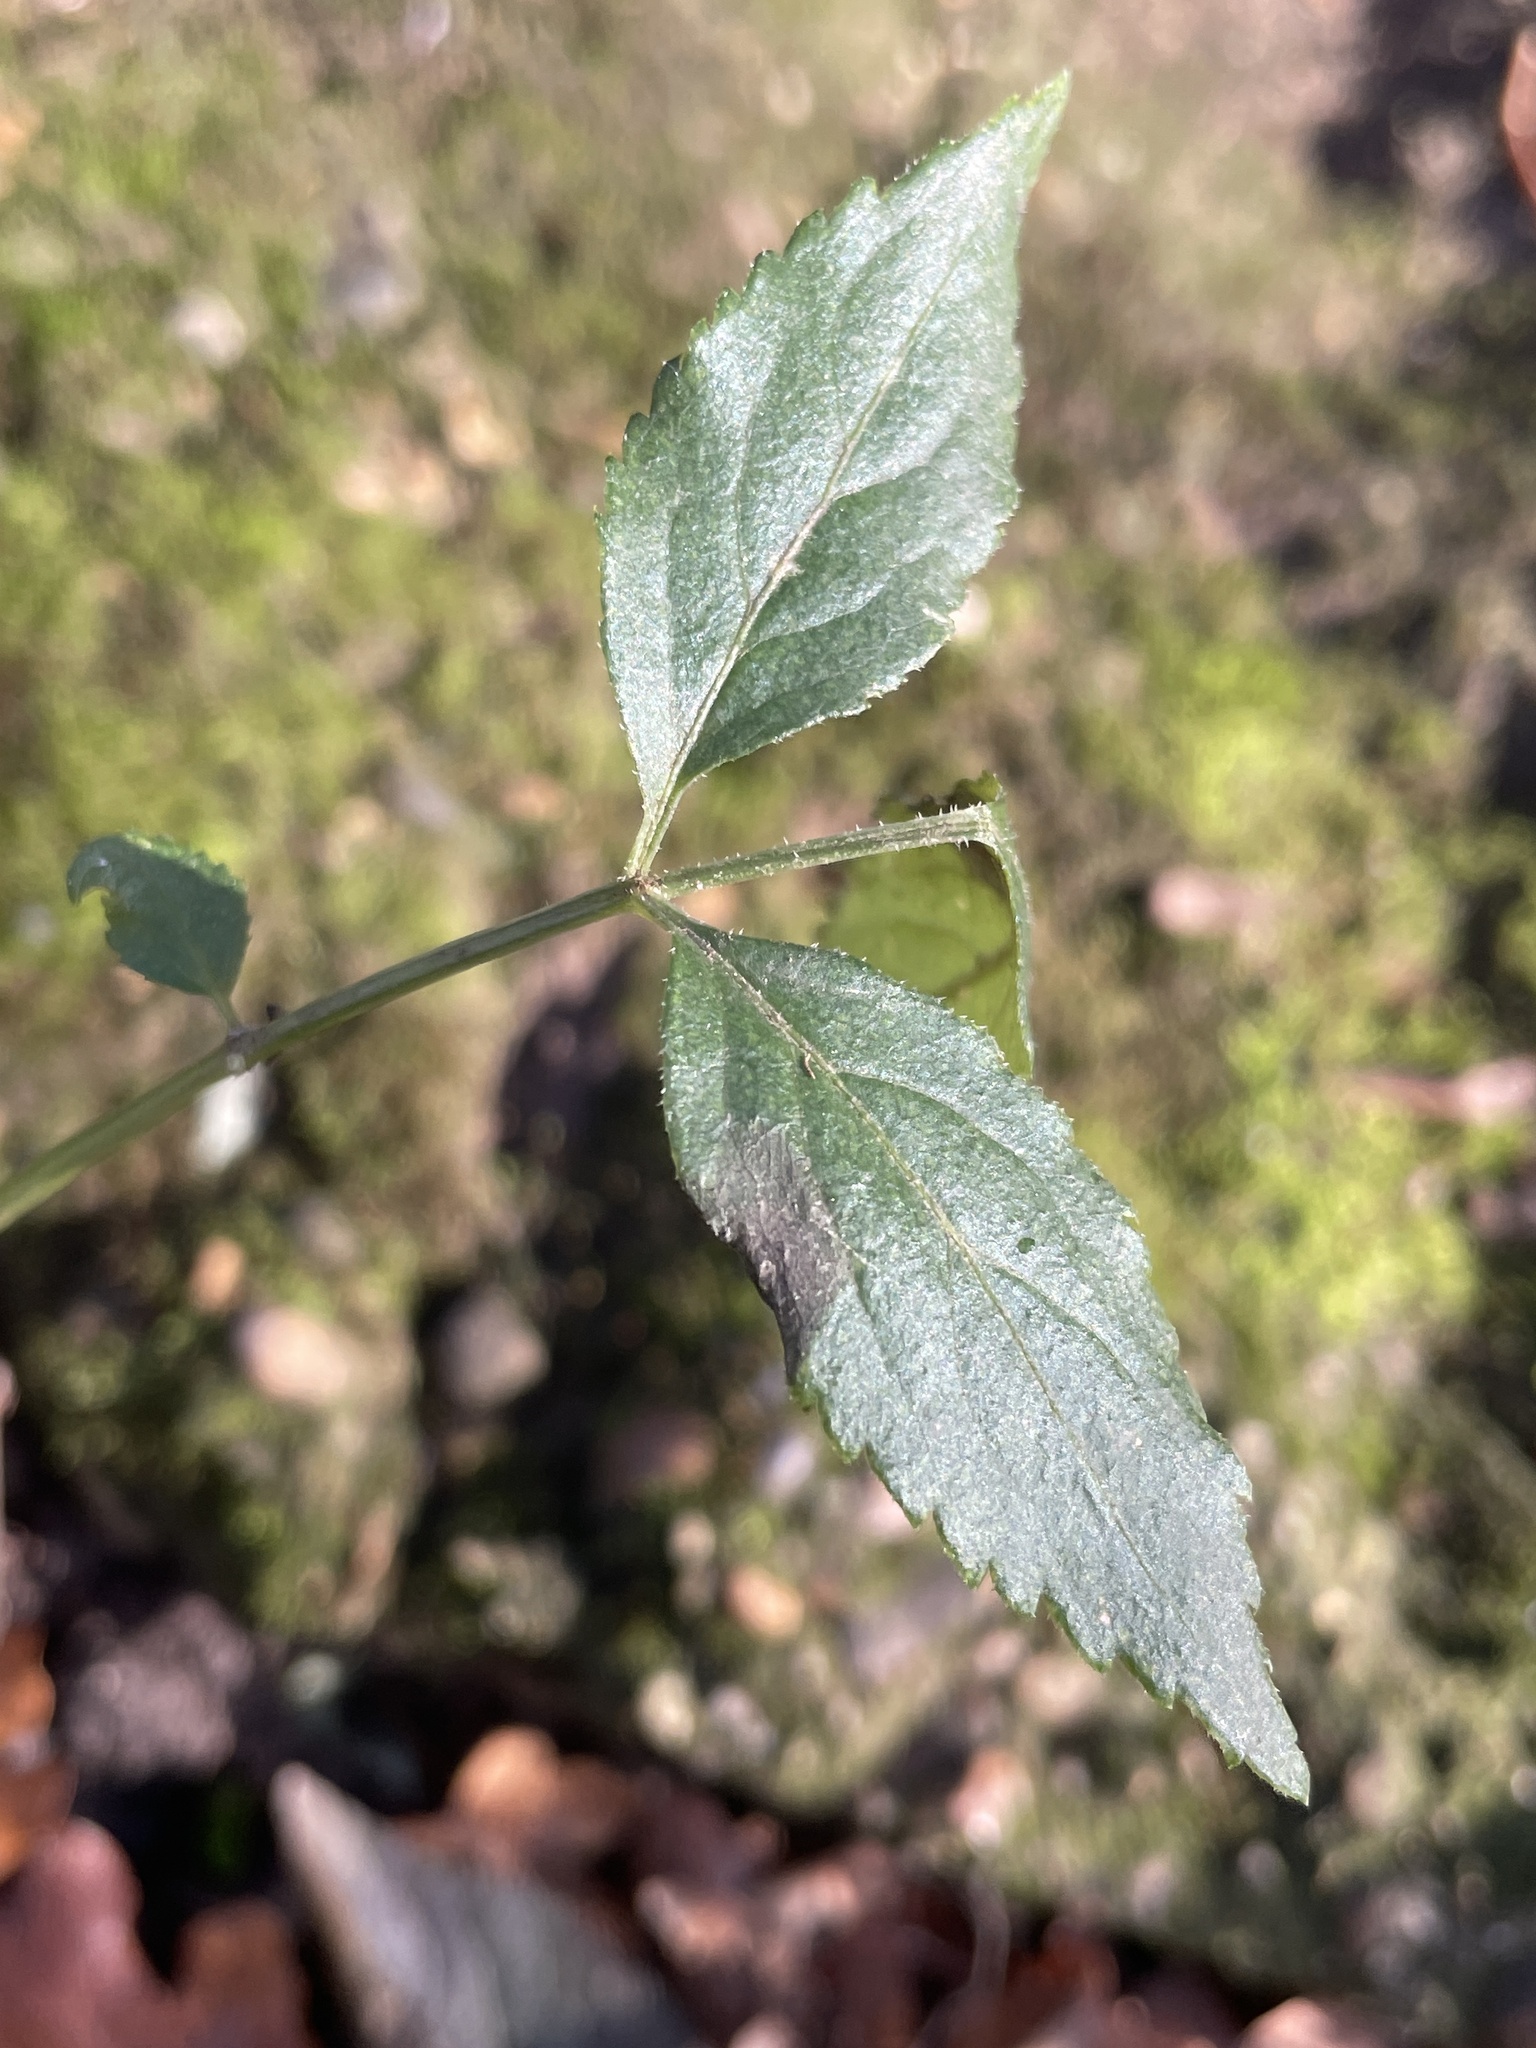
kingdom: Plantae
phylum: Tracheophyta
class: Magnoliopsida
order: Dipsacales
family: Viburnaceae
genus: Sambucus
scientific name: Sambucus nigra
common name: Elder
